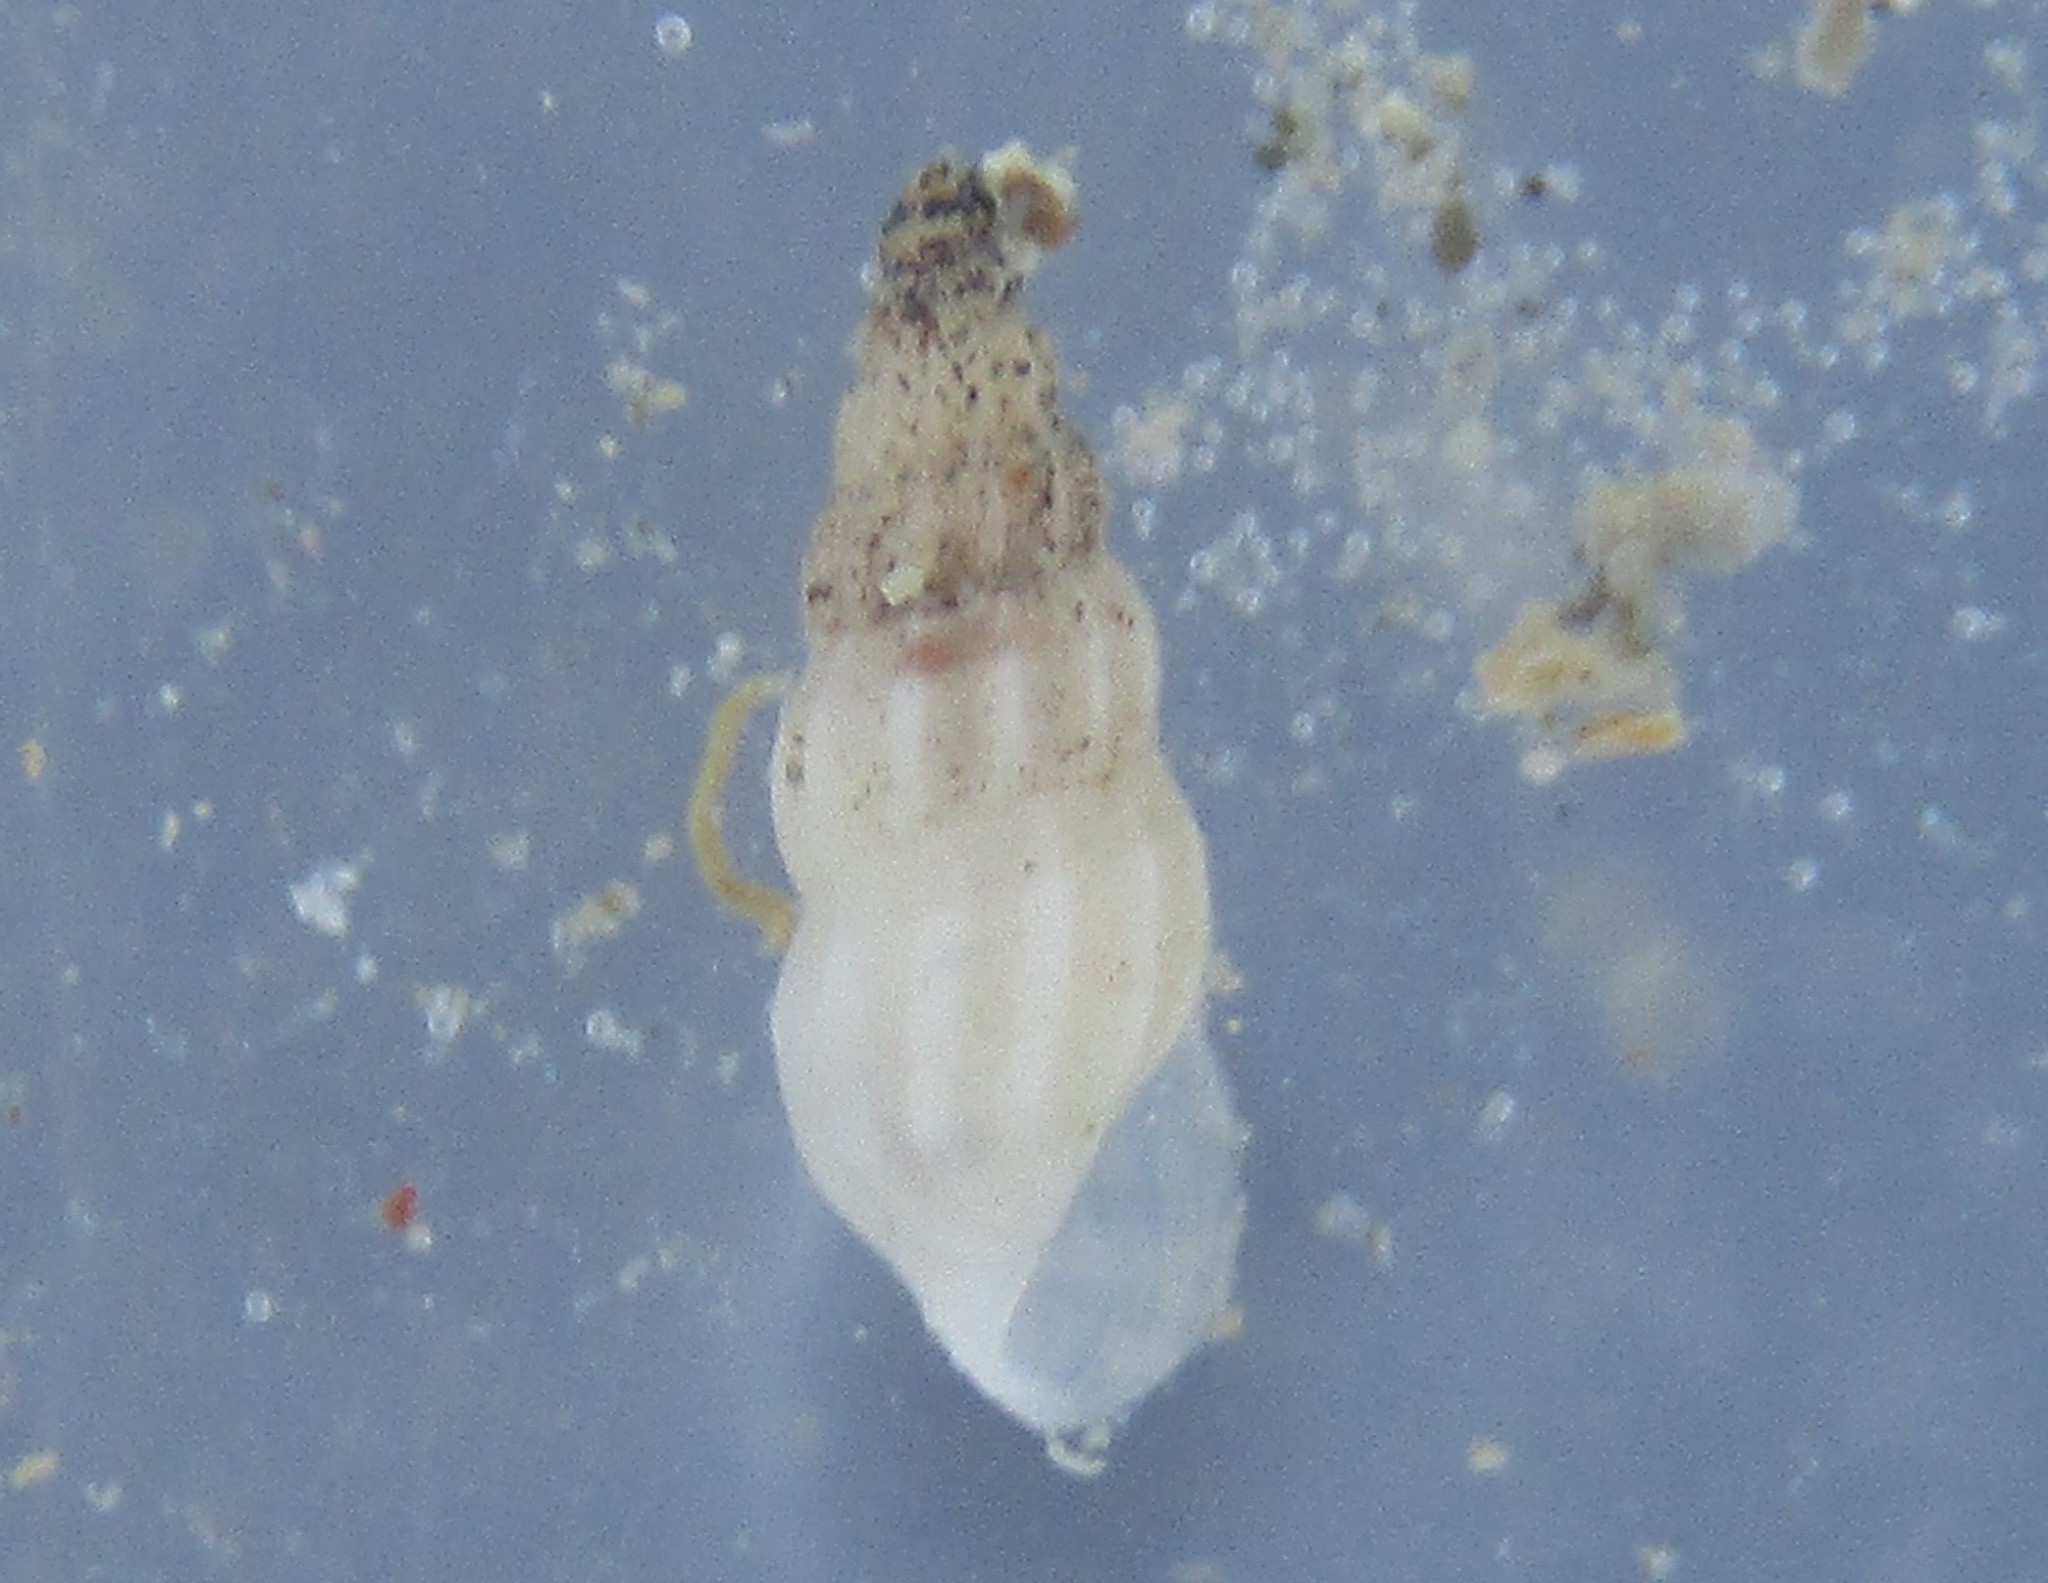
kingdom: Animalia
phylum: Mollusca
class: Gastropoda
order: Littorinimorpha
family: Rissoinidae
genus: Rissoina
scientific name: Rissoina fucosa
